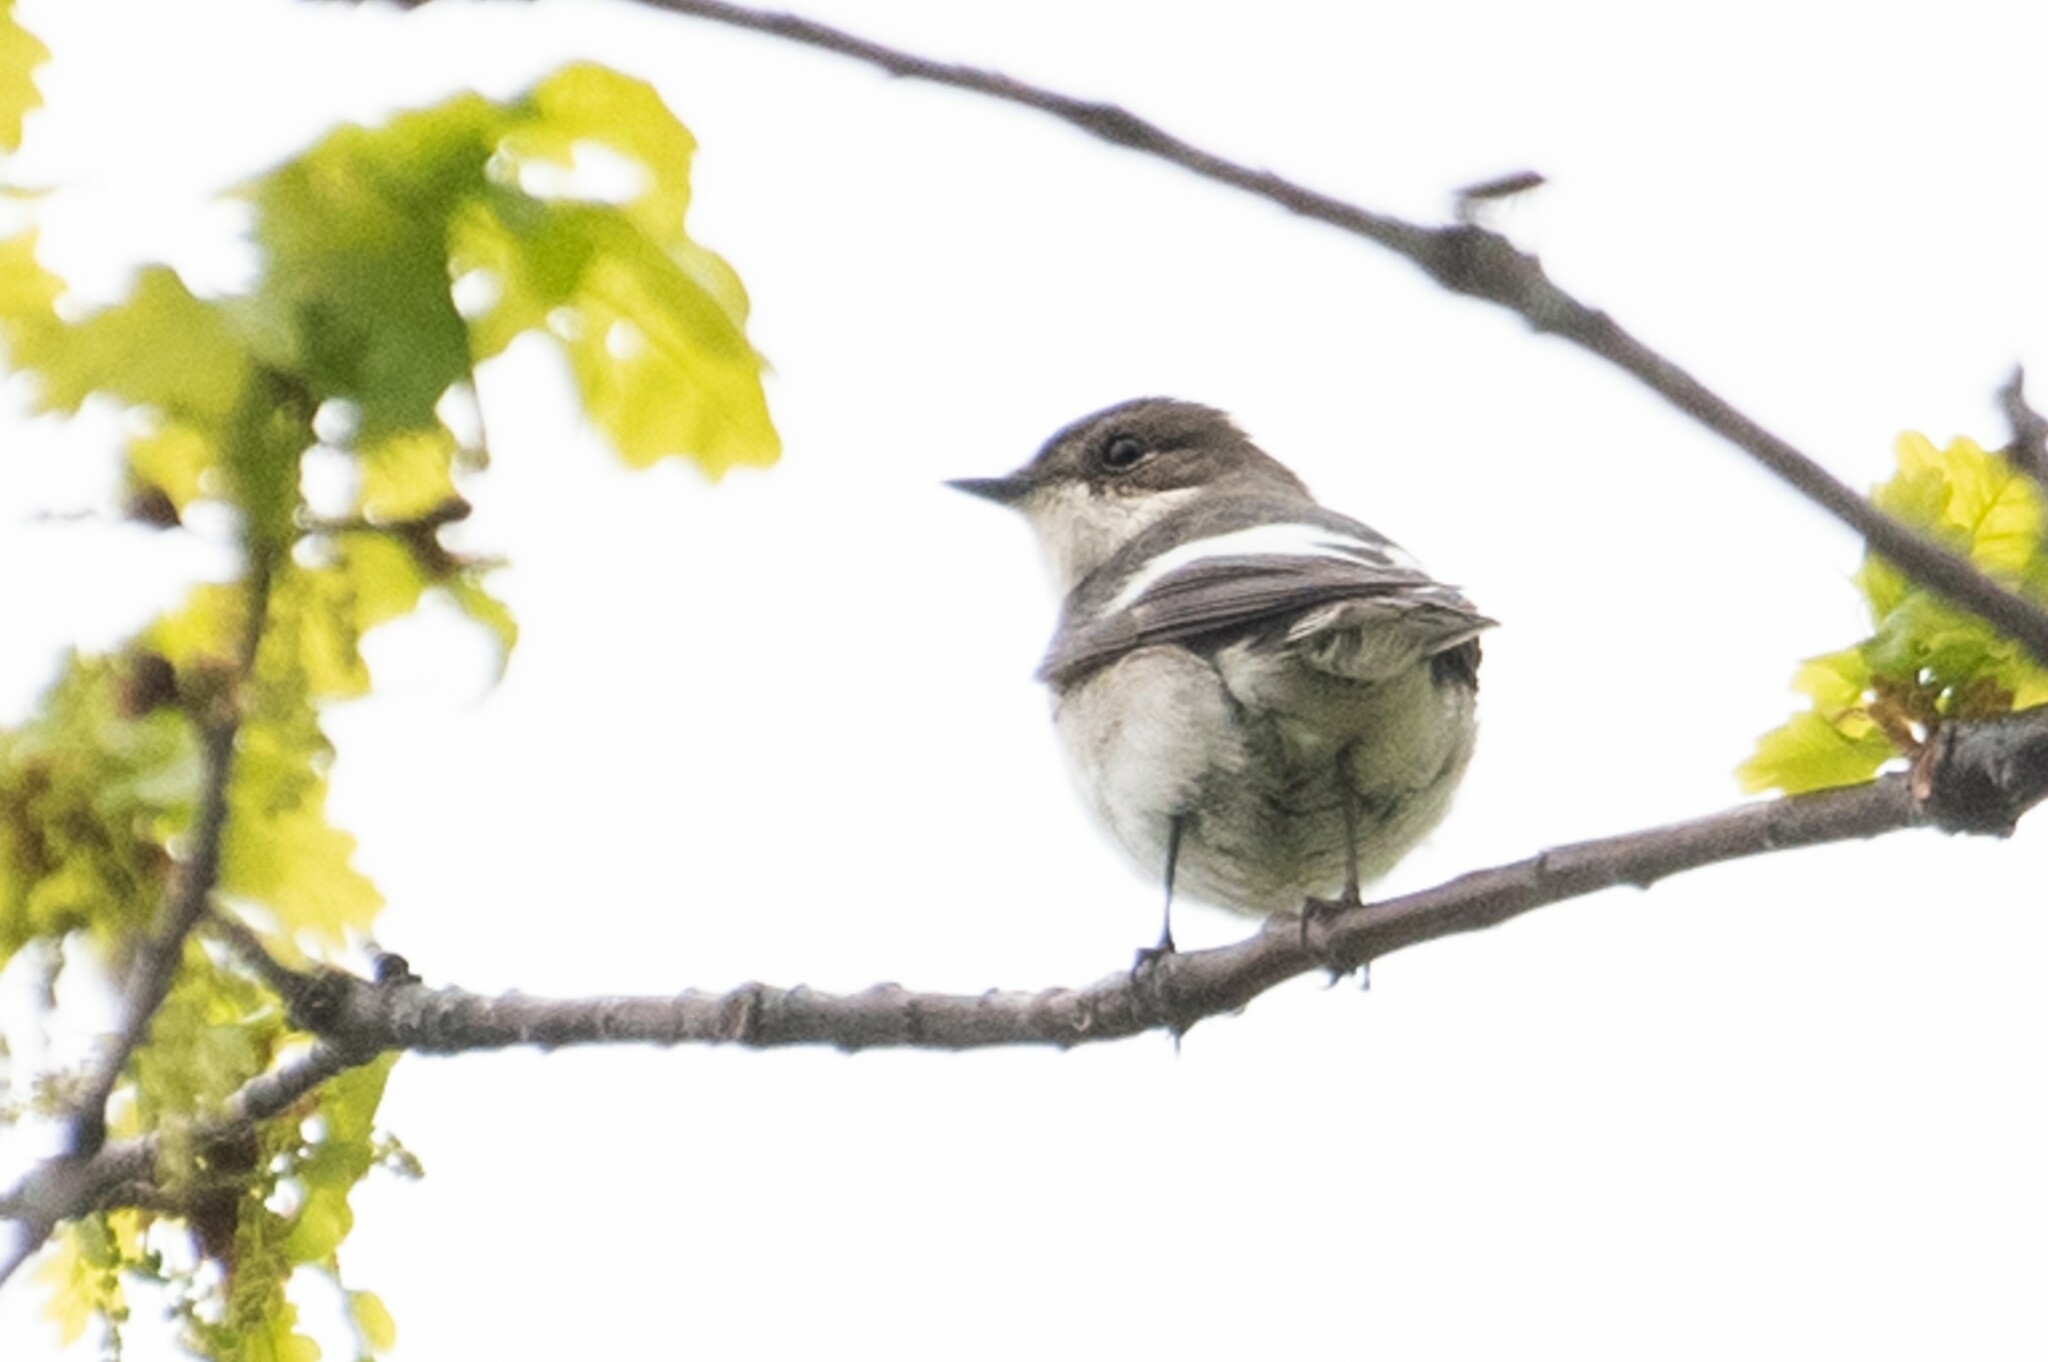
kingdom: Animalia
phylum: Chordata
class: Aves
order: Passeriformes
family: Muscicapidae
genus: Ficedula
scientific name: Ficedula hypoleuca
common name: European pied flycatcher
